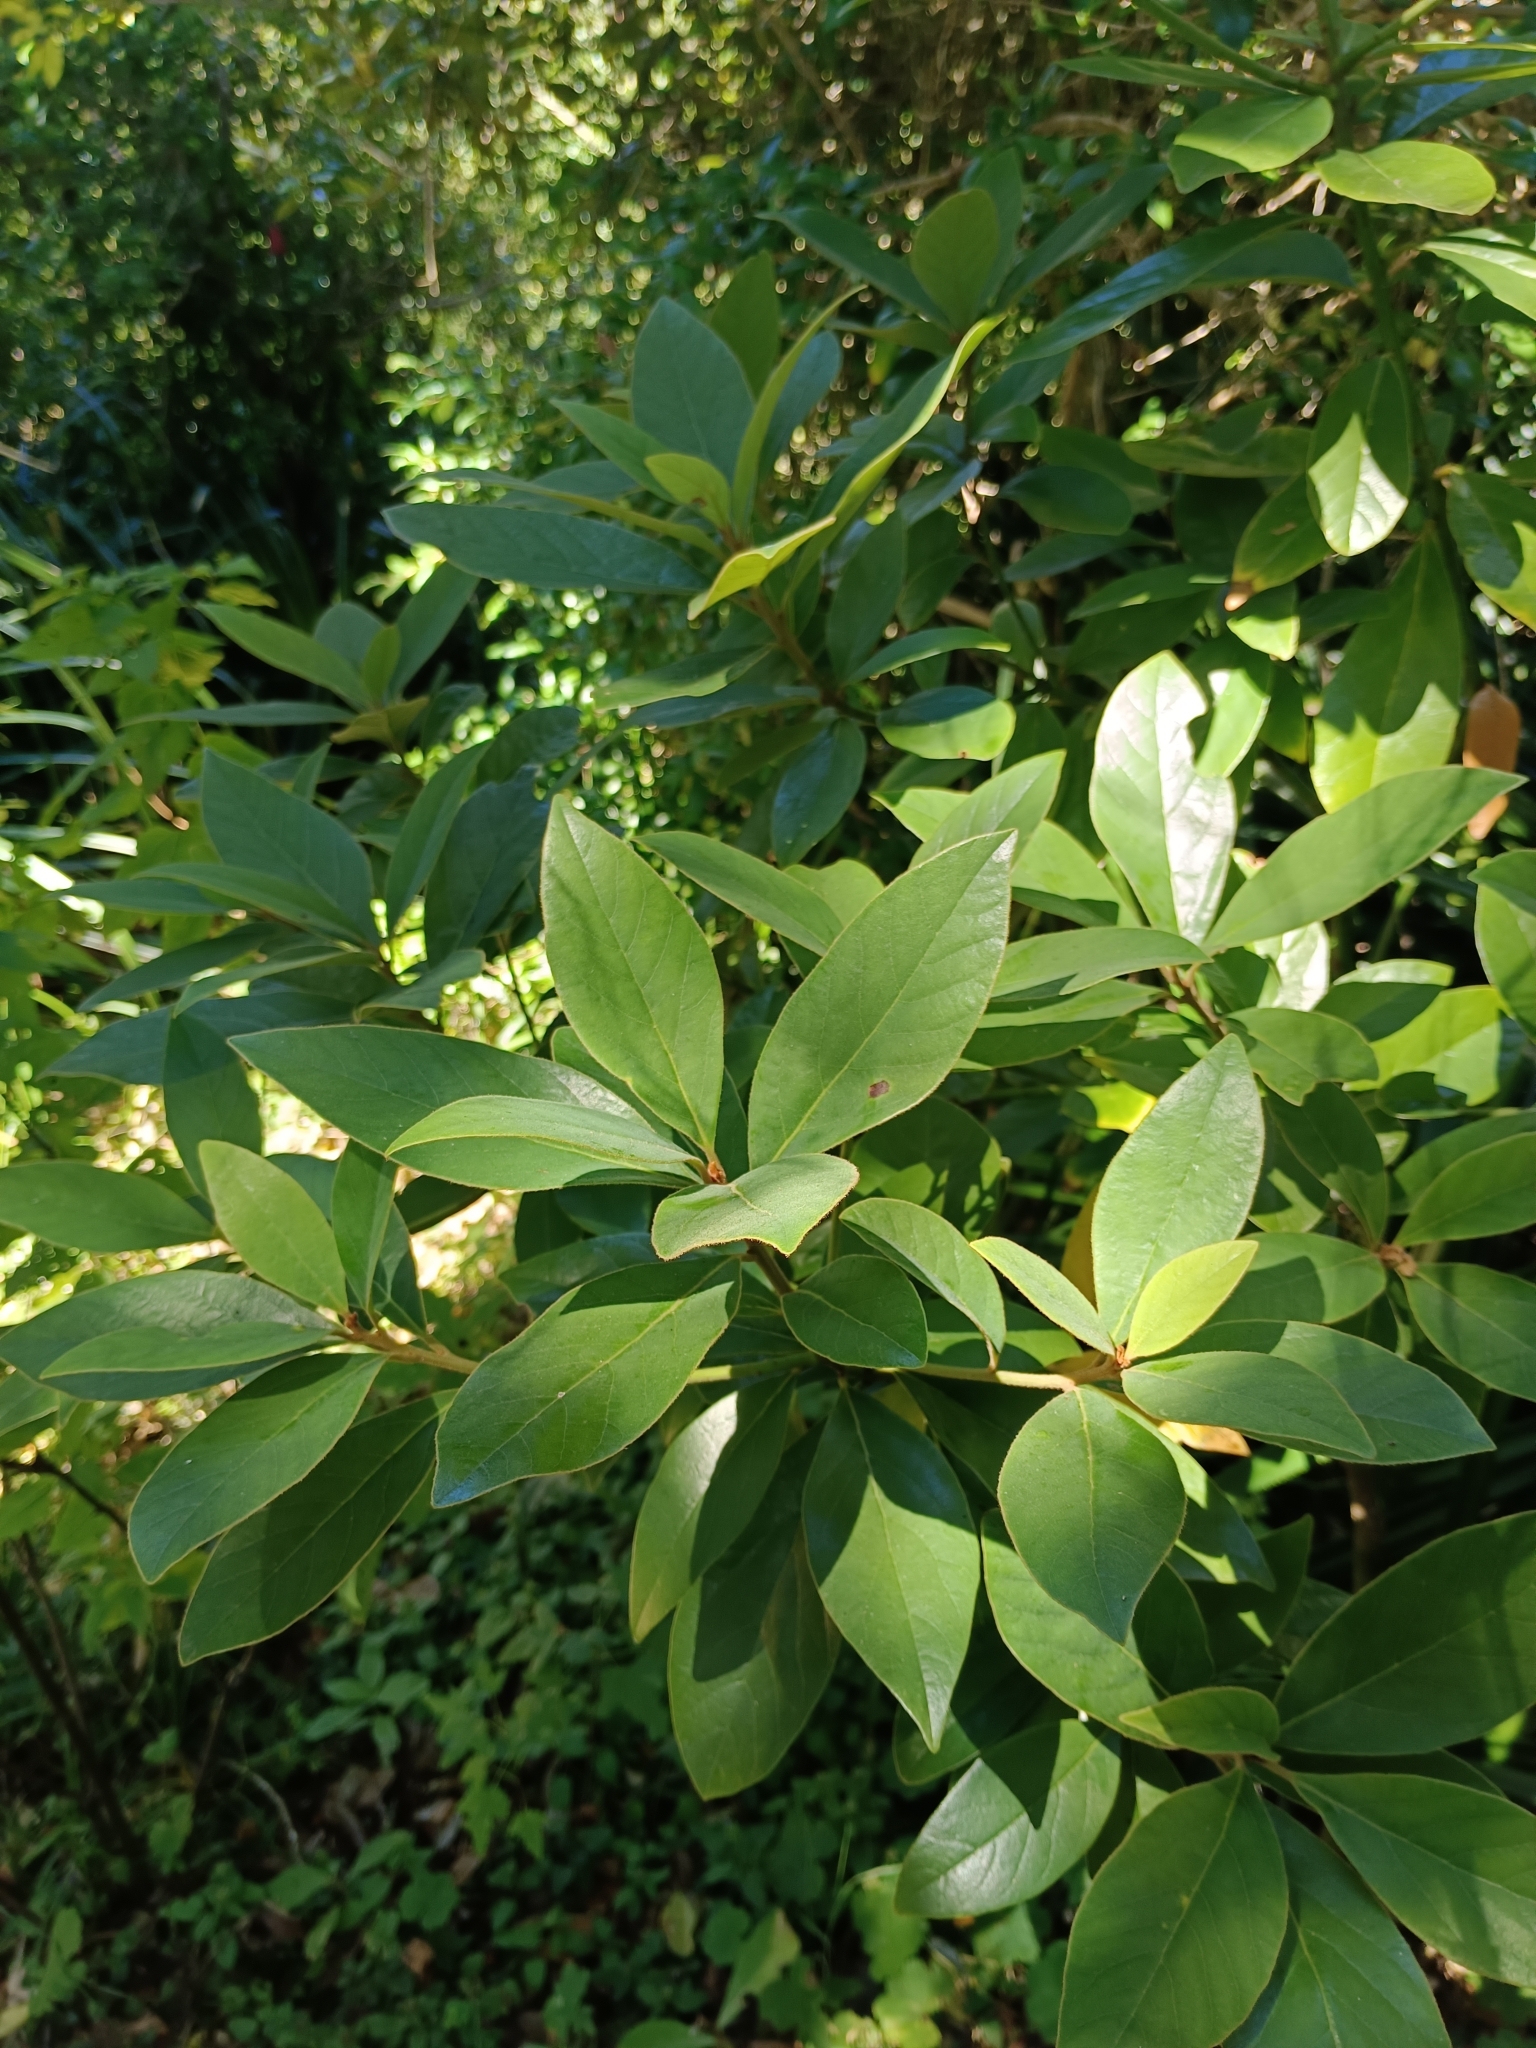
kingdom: Plantae
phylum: Tracheophyta
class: Magnoliopsida
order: Laurales
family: Lauraceae
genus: Persea
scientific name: Persea lingue
